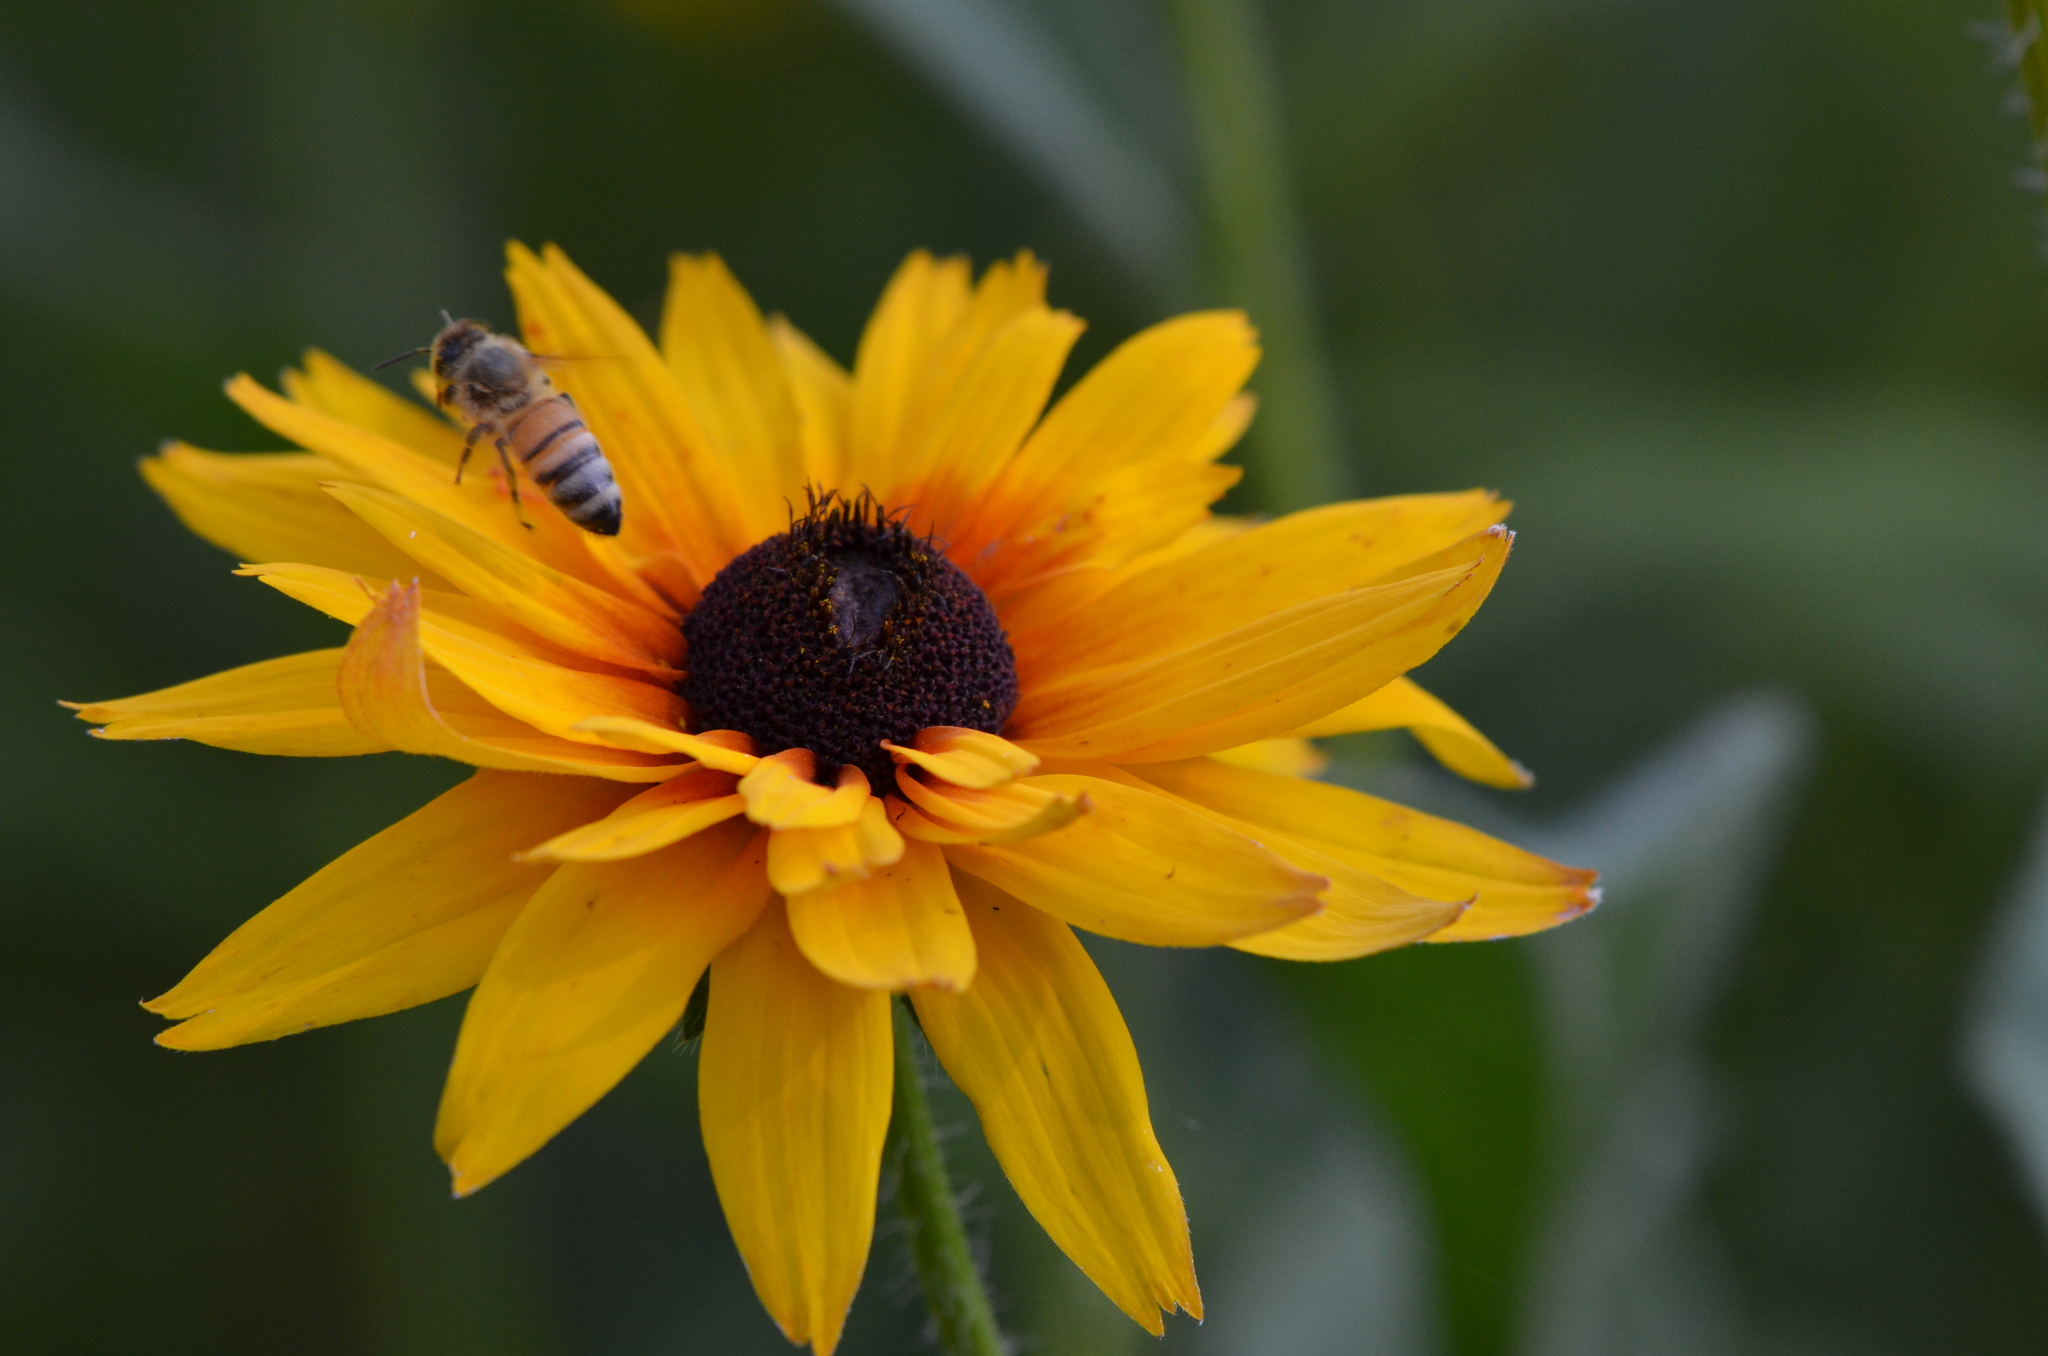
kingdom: Animalia
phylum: Arthropoda
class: Insecta
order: Hymenoptera
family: Apidae
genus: Apis
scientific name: Apis mellifera
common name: Honey bee
